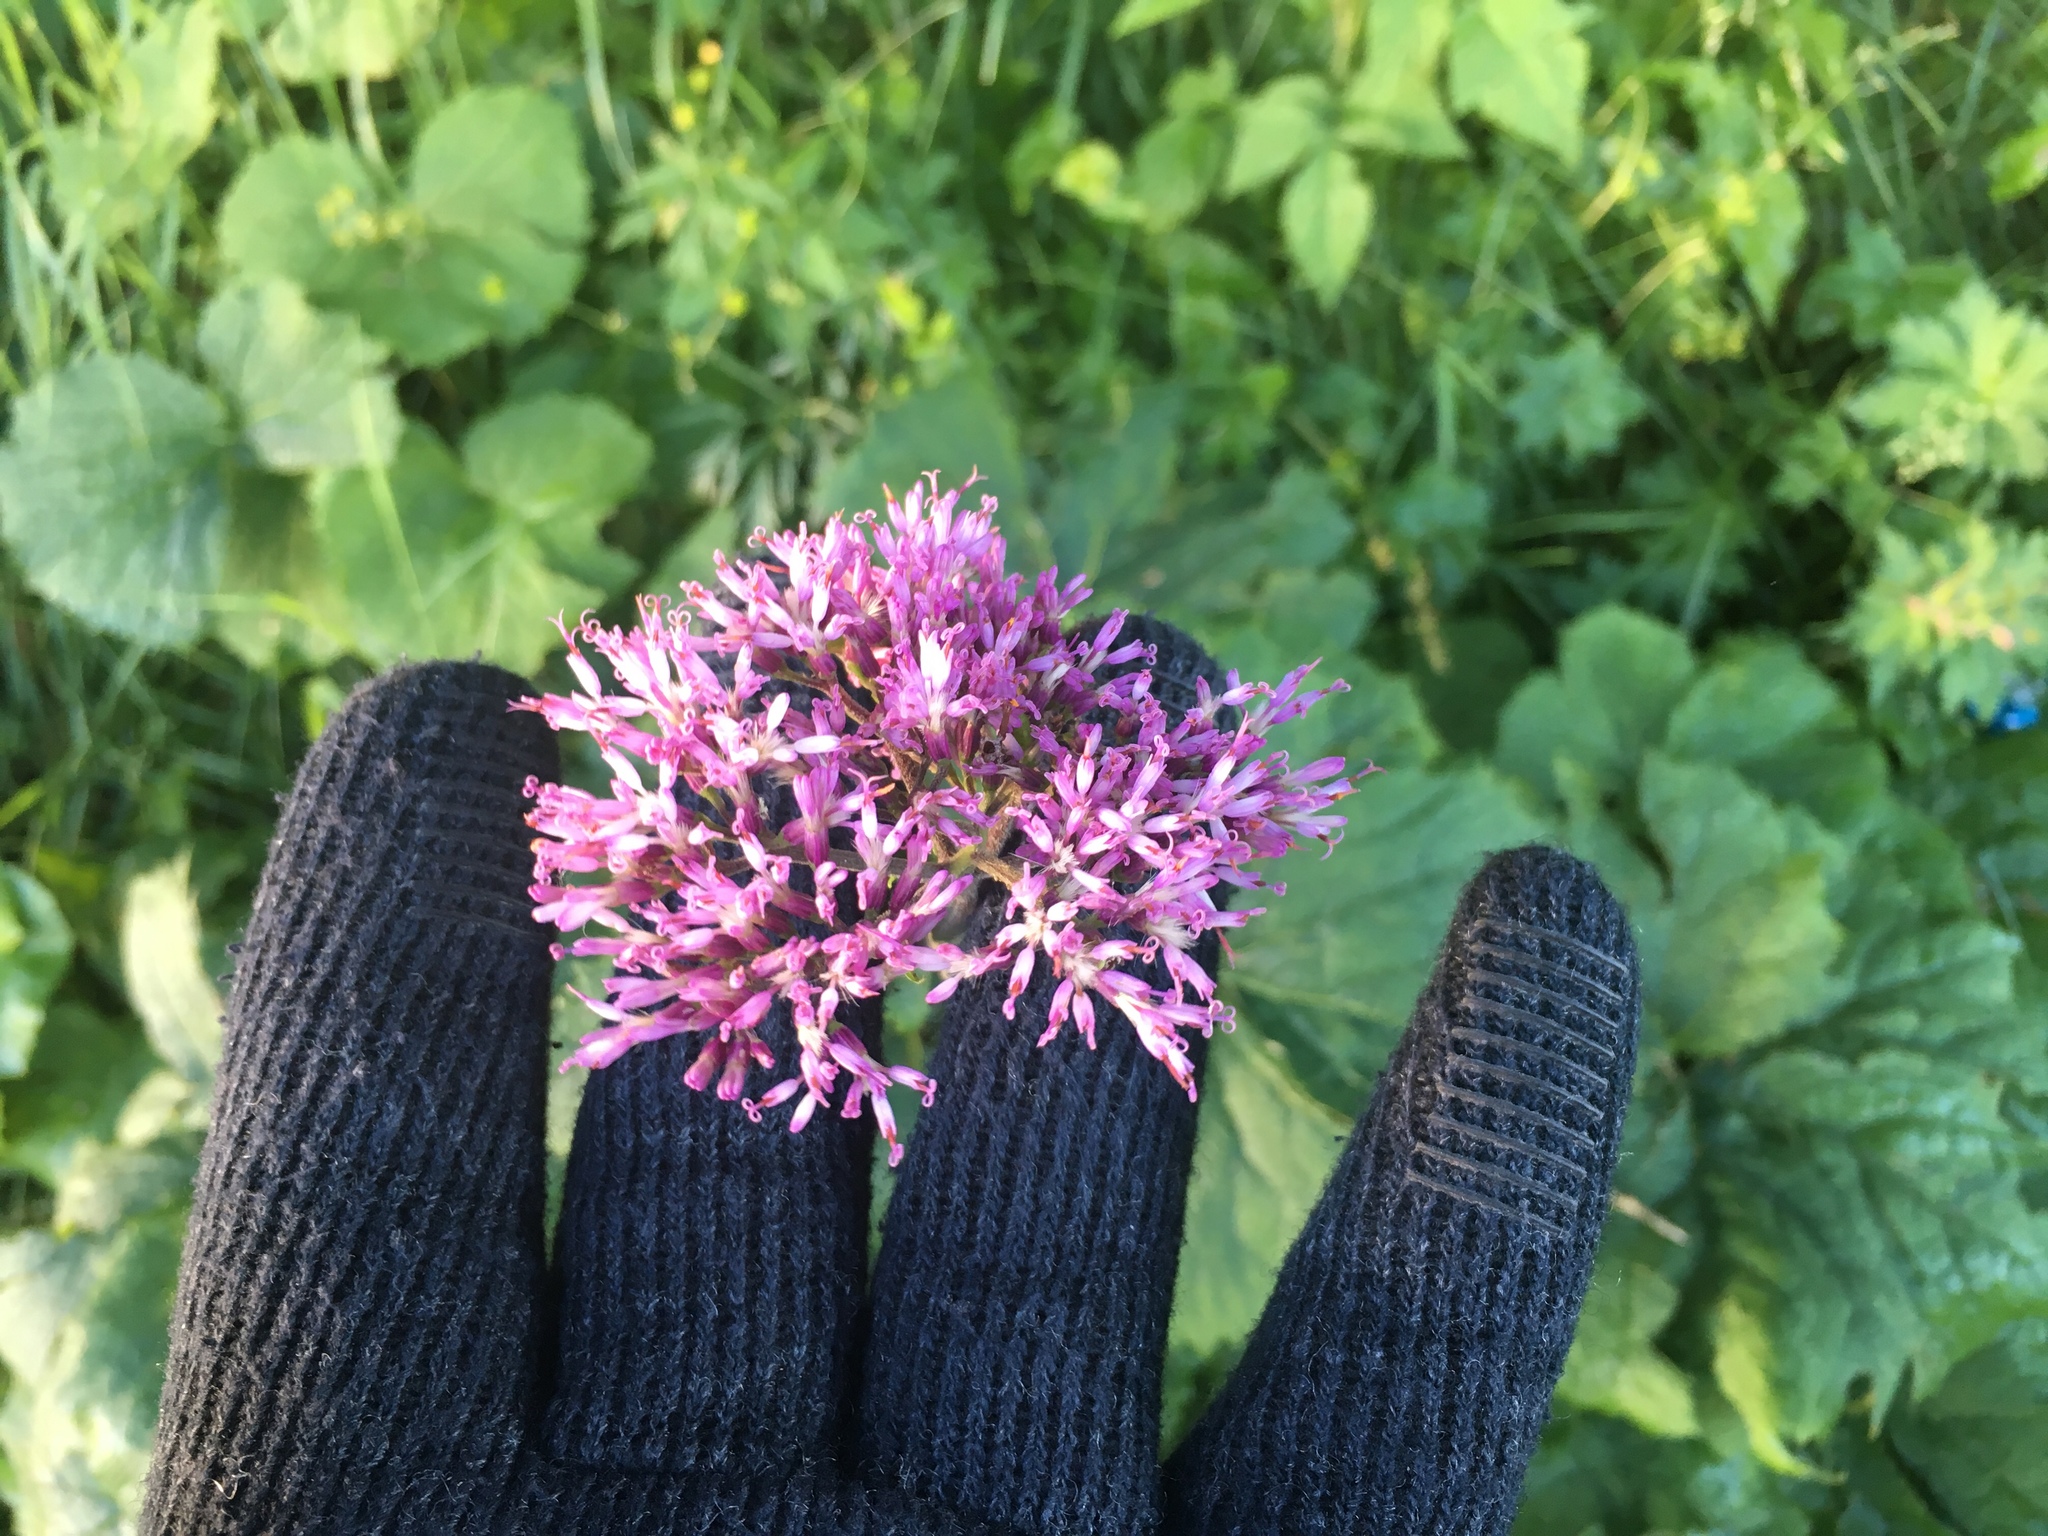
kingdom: Plantae
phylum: Tracheophyta
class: Magnoliopsida
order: Asterales
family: Asteraceae
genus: Adenostyles
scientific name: Adenostyles alliariae
